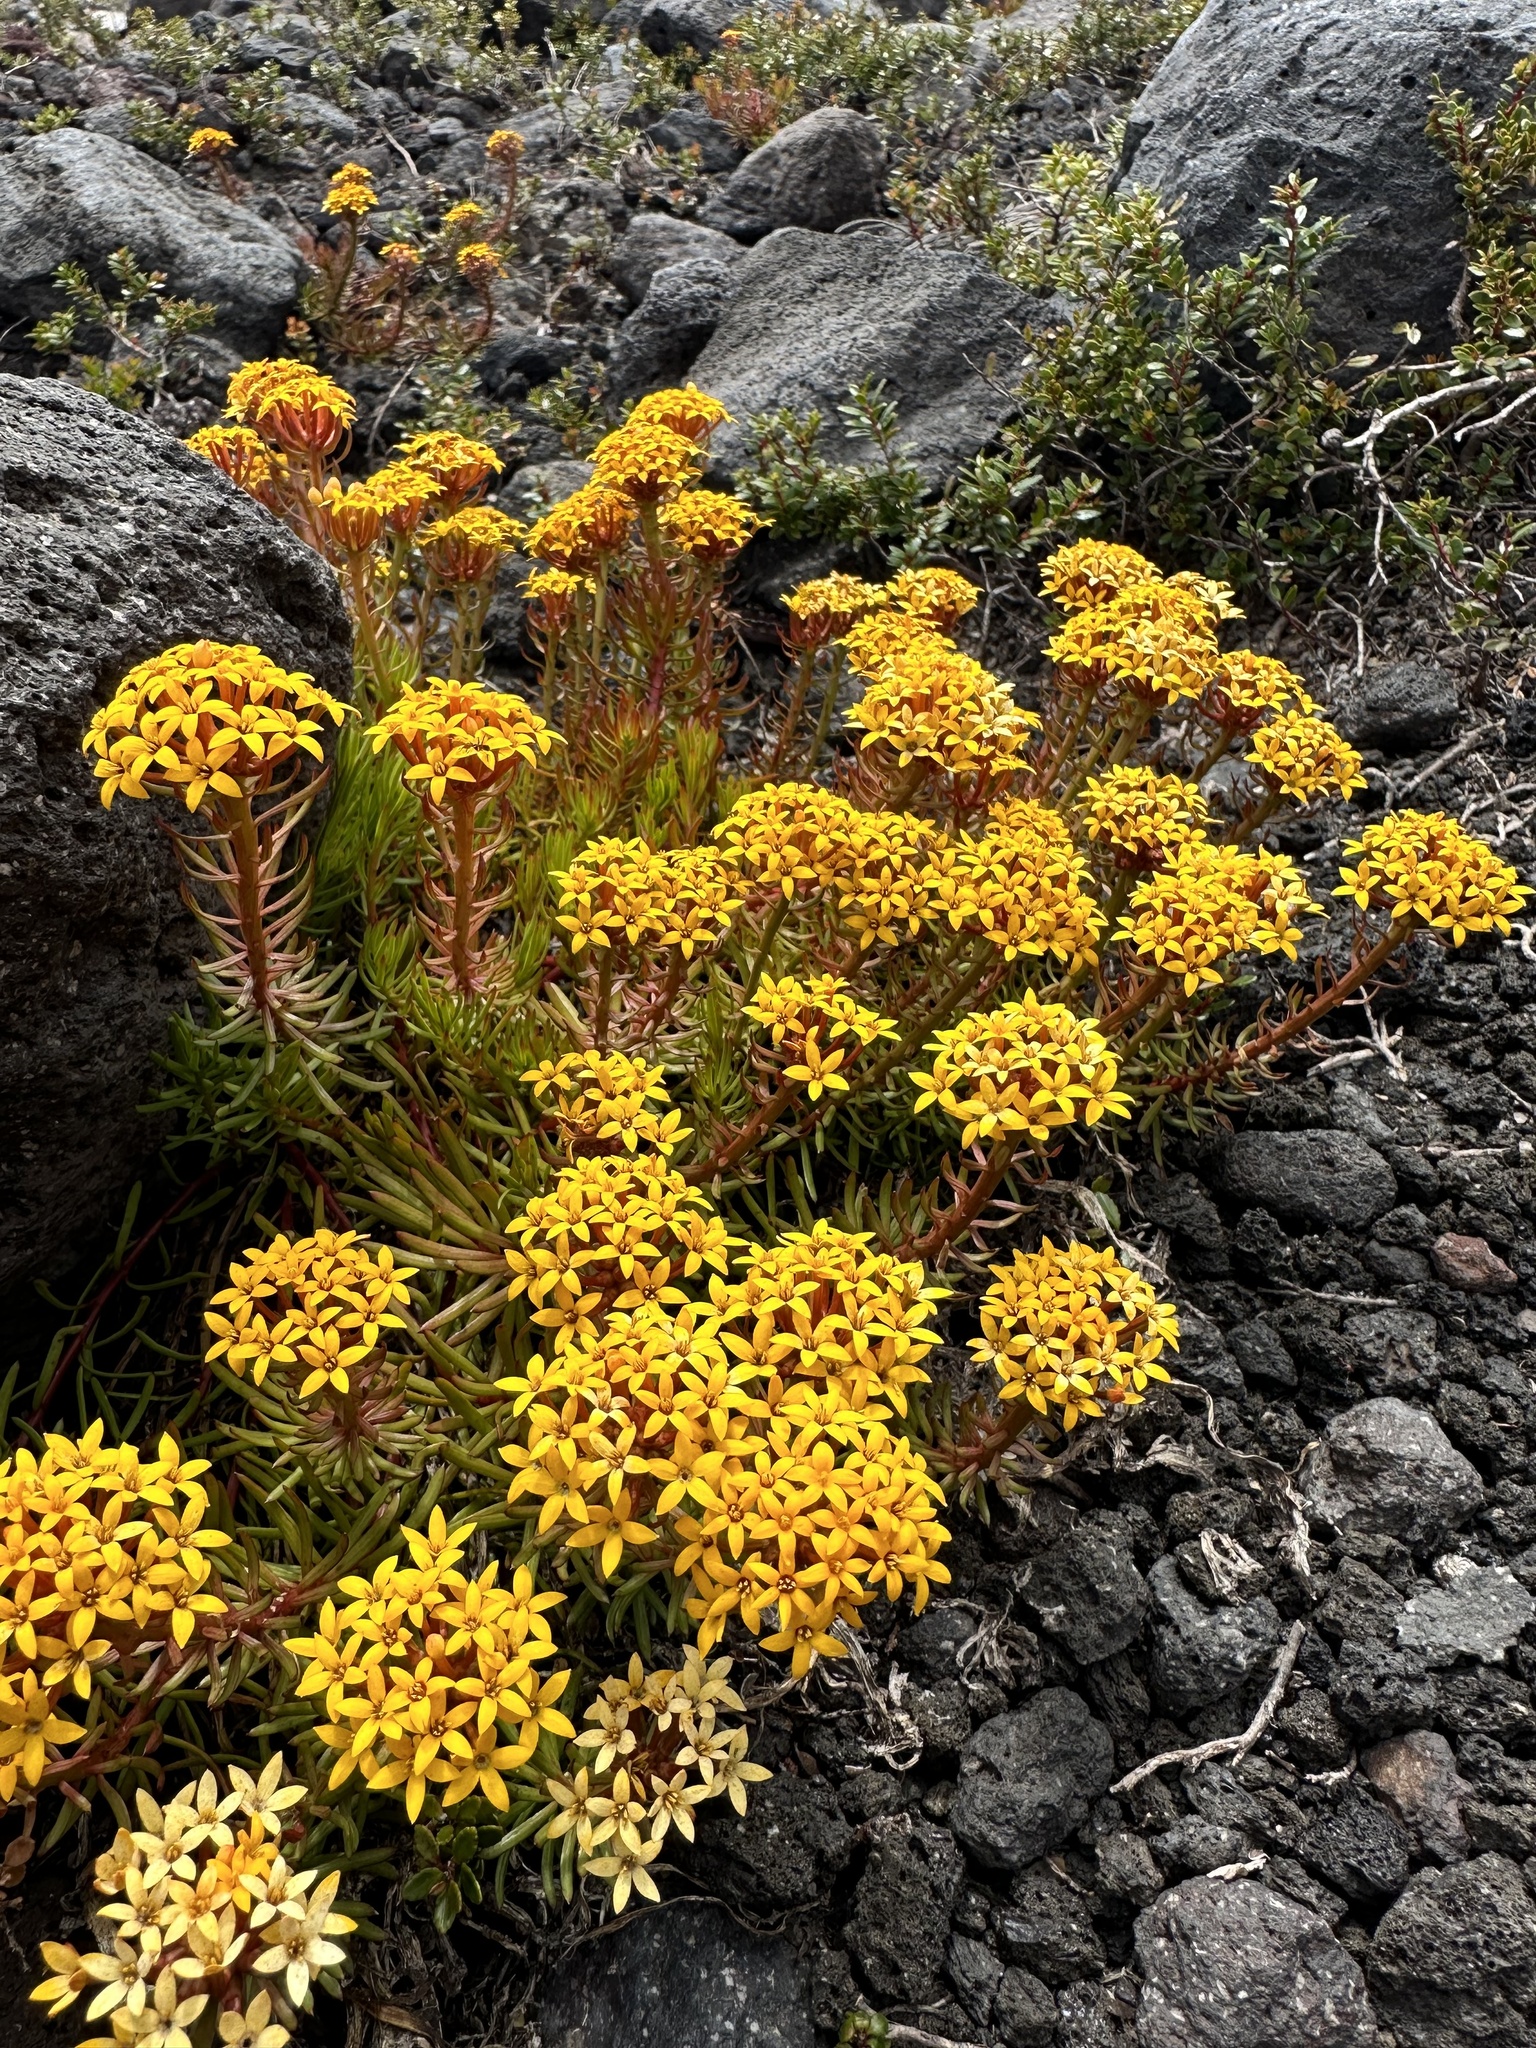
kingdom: Plantae
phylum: Tracheophyta
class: Magnoliopsida
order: Santalales
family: Schoepfiaceae
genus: Quinchamalium
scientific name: Quinchamalium chilense
